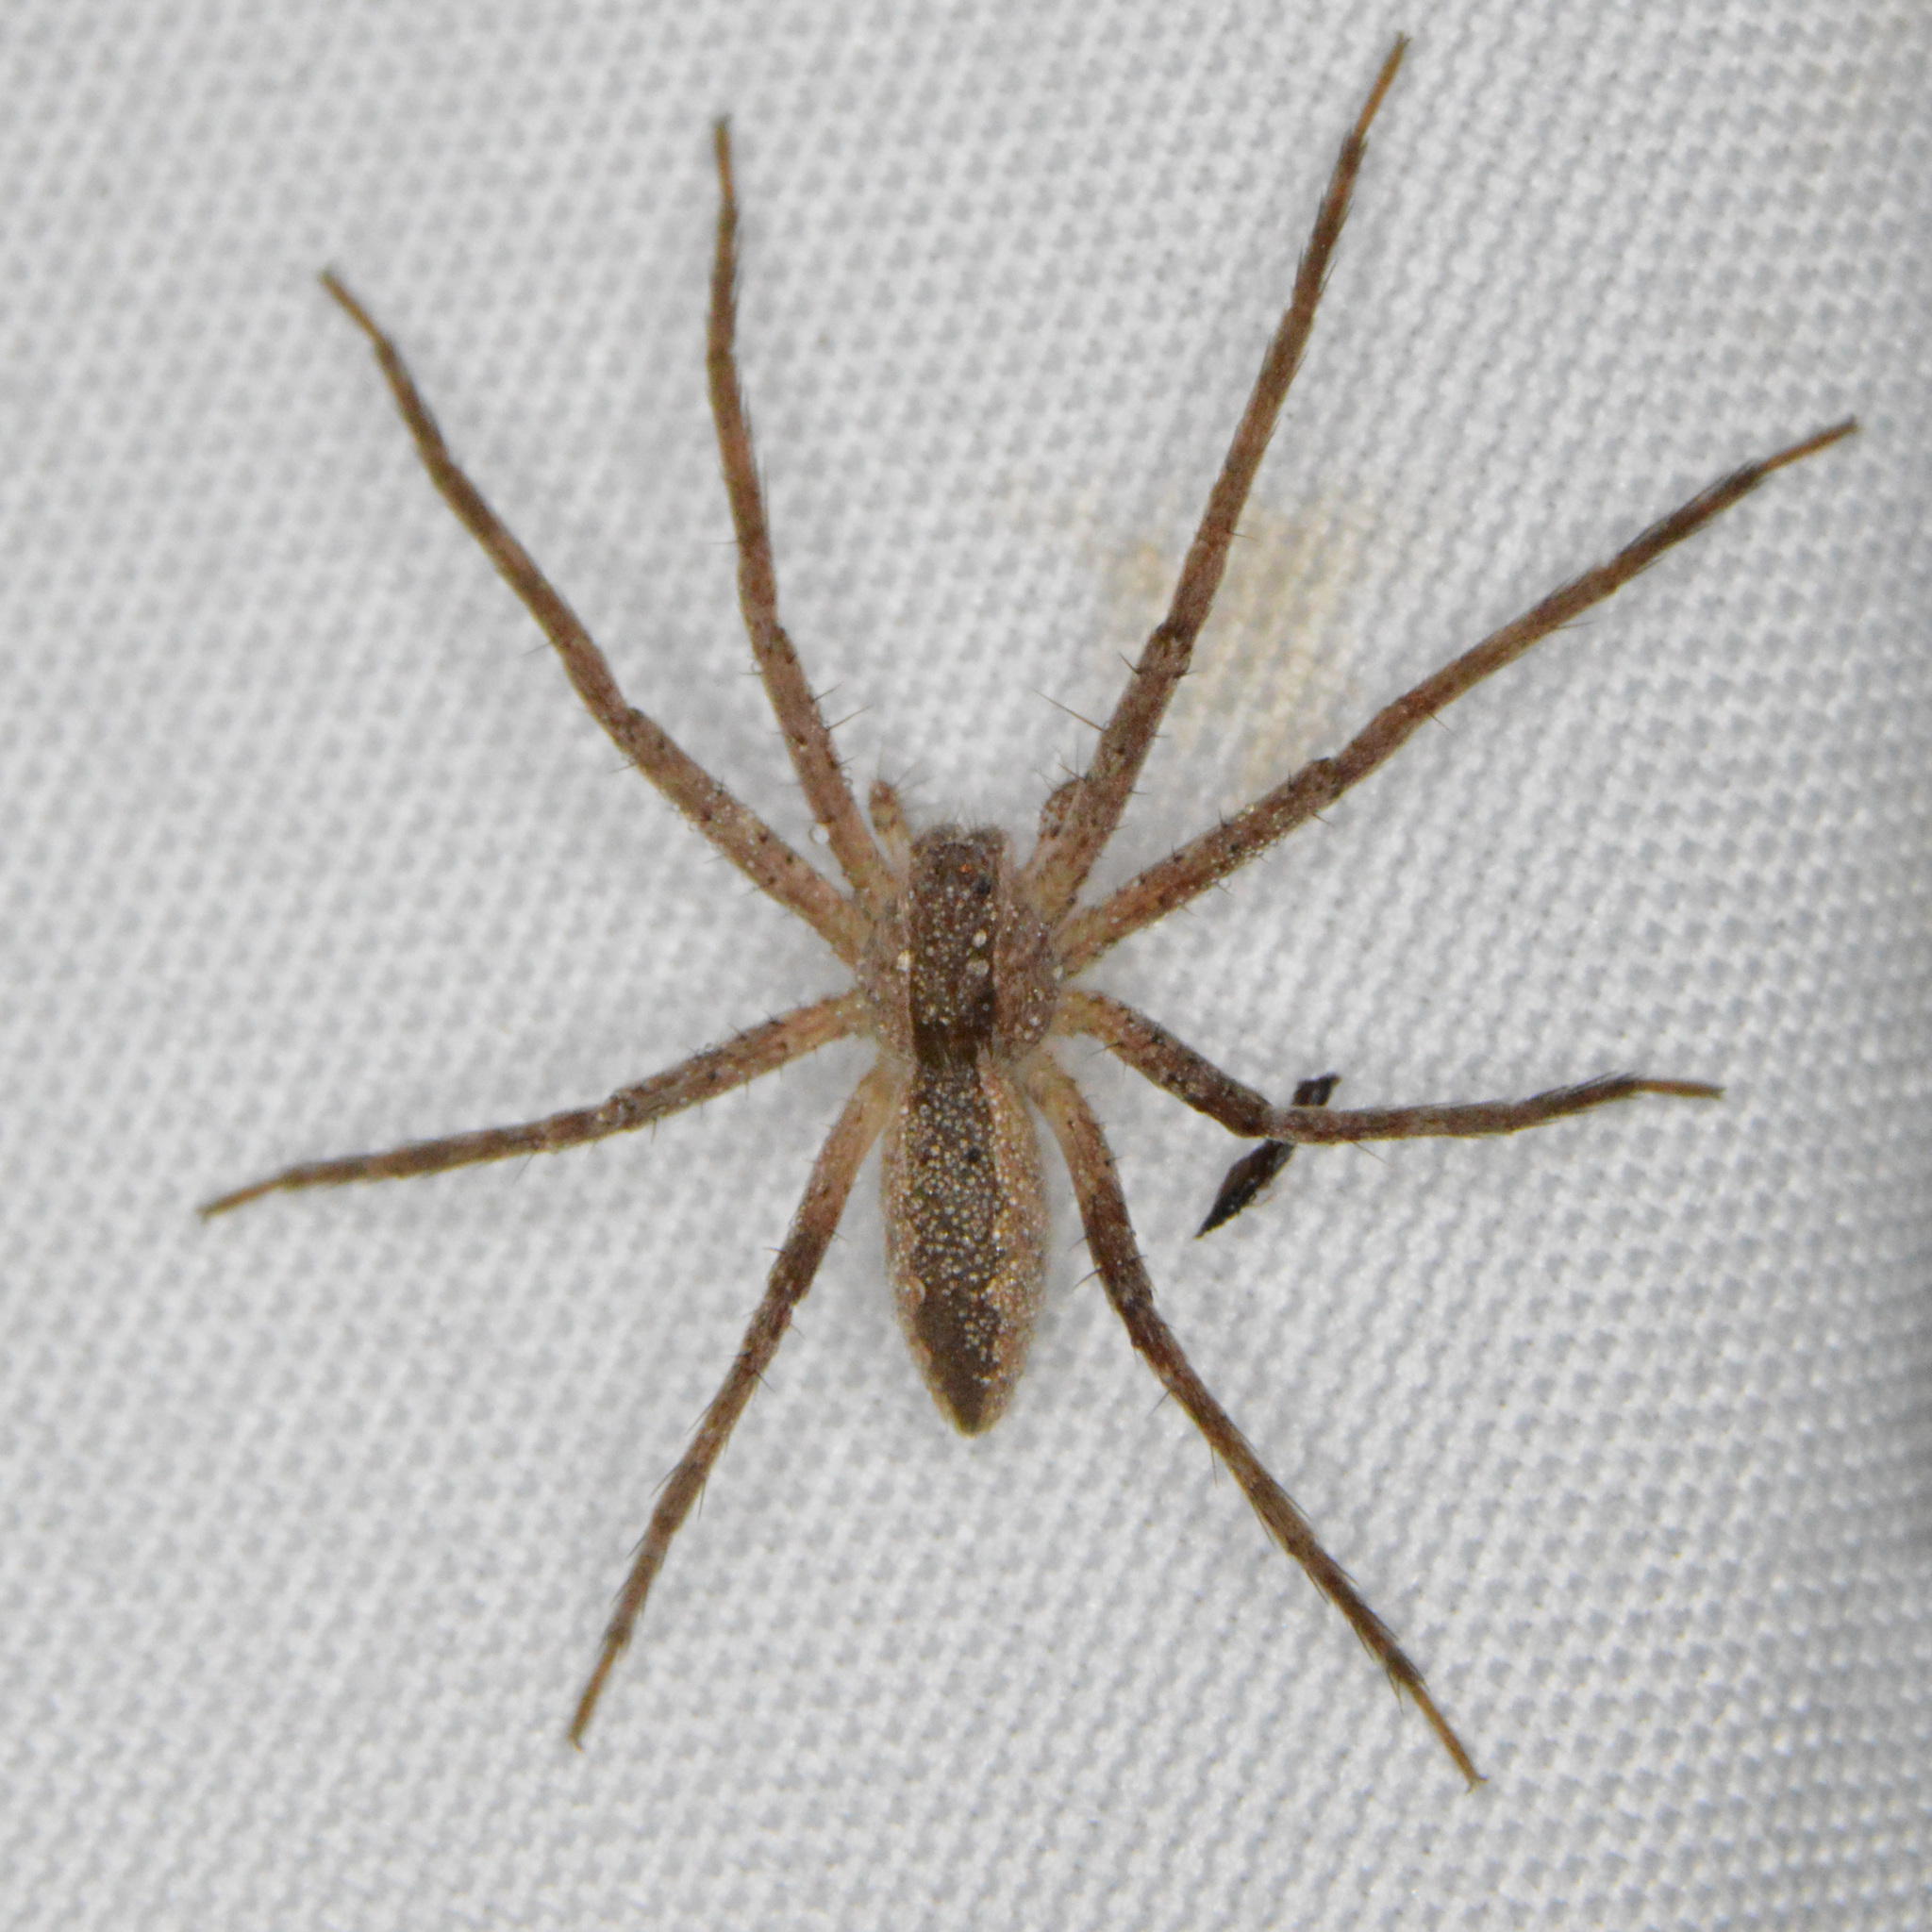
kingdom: Animalia
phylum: Arthropoda
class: Arachnida
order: Araneae
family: Pisauridae
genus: Pisaurina
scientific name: Pisaurina mira
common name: American nursery web spider
